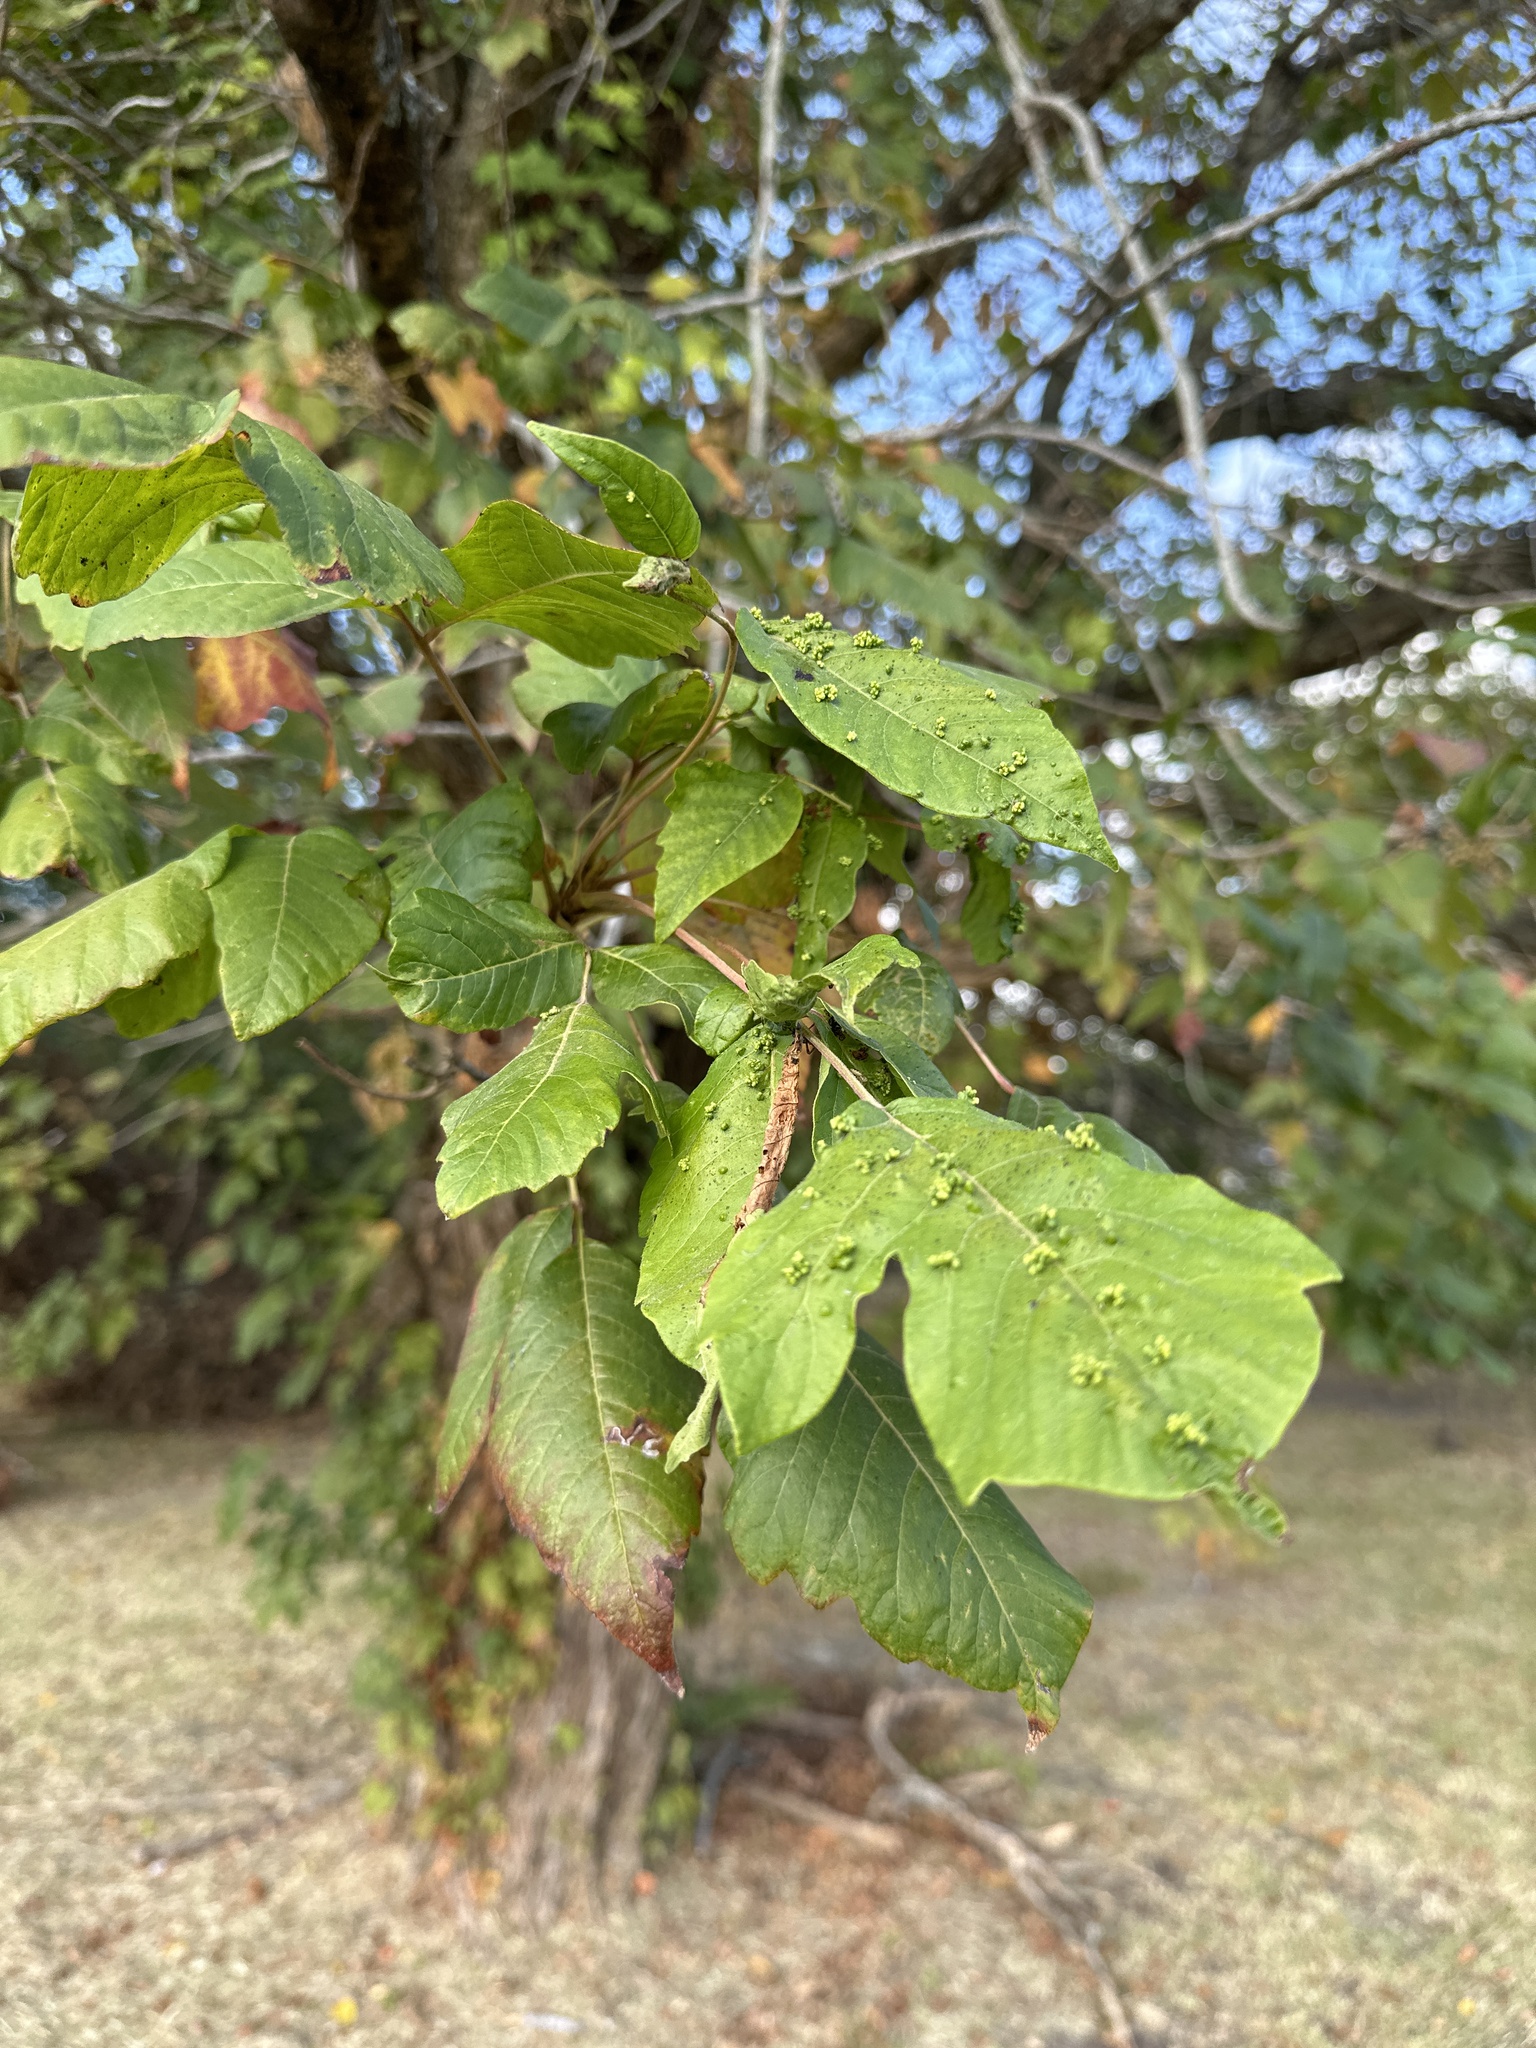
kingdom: Plantae
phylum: Tracheophyta
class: Magnoliopsida
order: Sapindales
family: Anacardiaceae
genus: Toxicodendron
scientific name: Toxicodendron radicans
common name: Poison ivy
